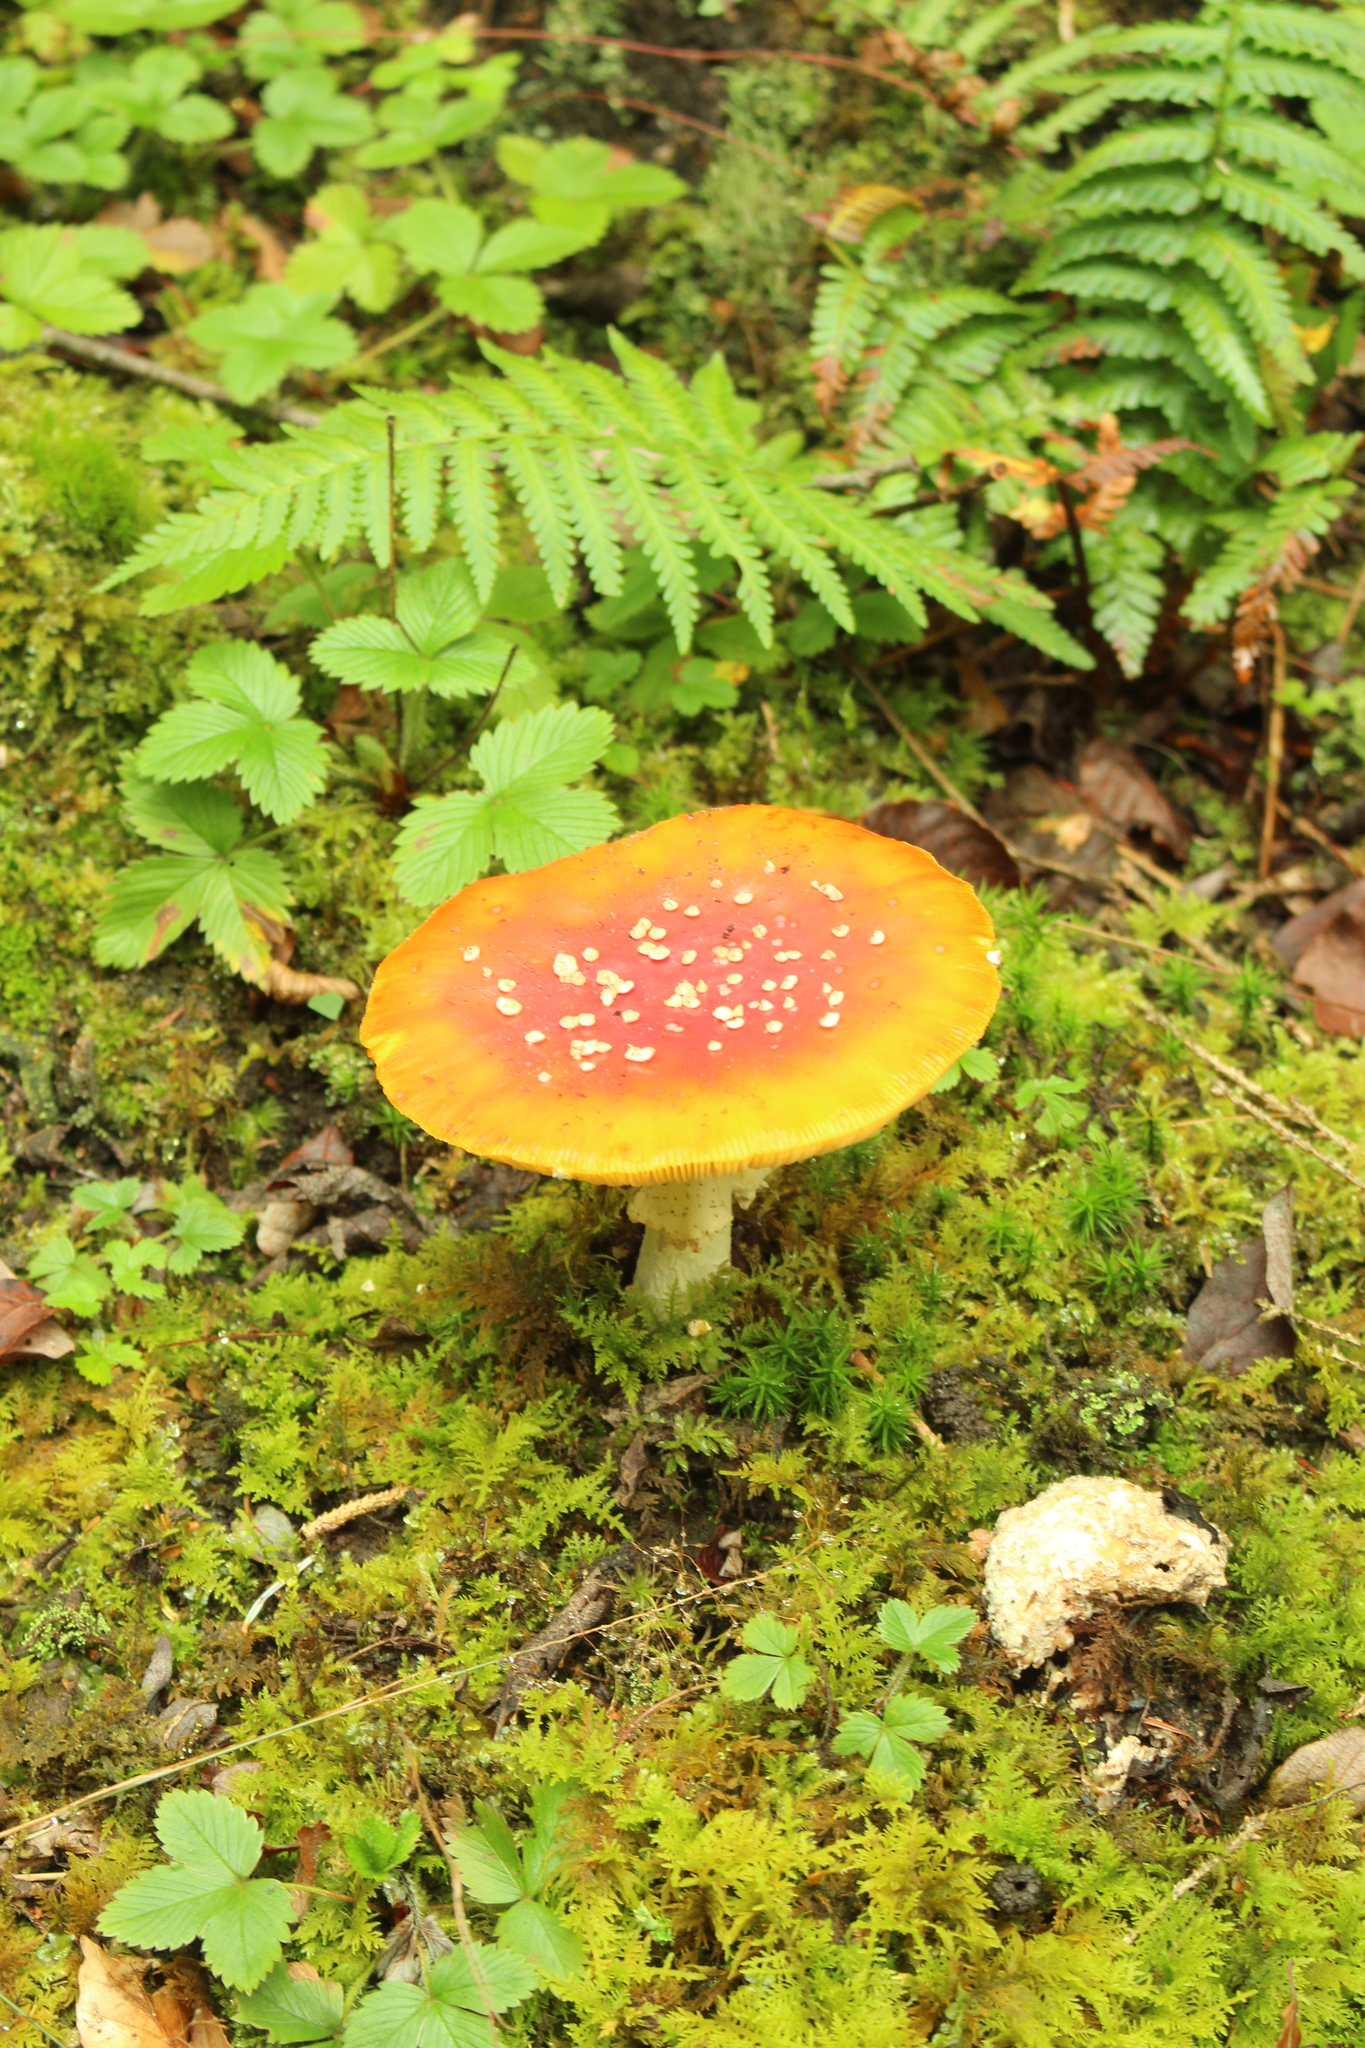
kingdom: Fungi
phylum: Basidiomycota
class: Agaricomycetes
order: Agaricales
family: Amanitaceae
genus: Amanita
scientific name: Amanita muscaria
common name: Fly agaric
